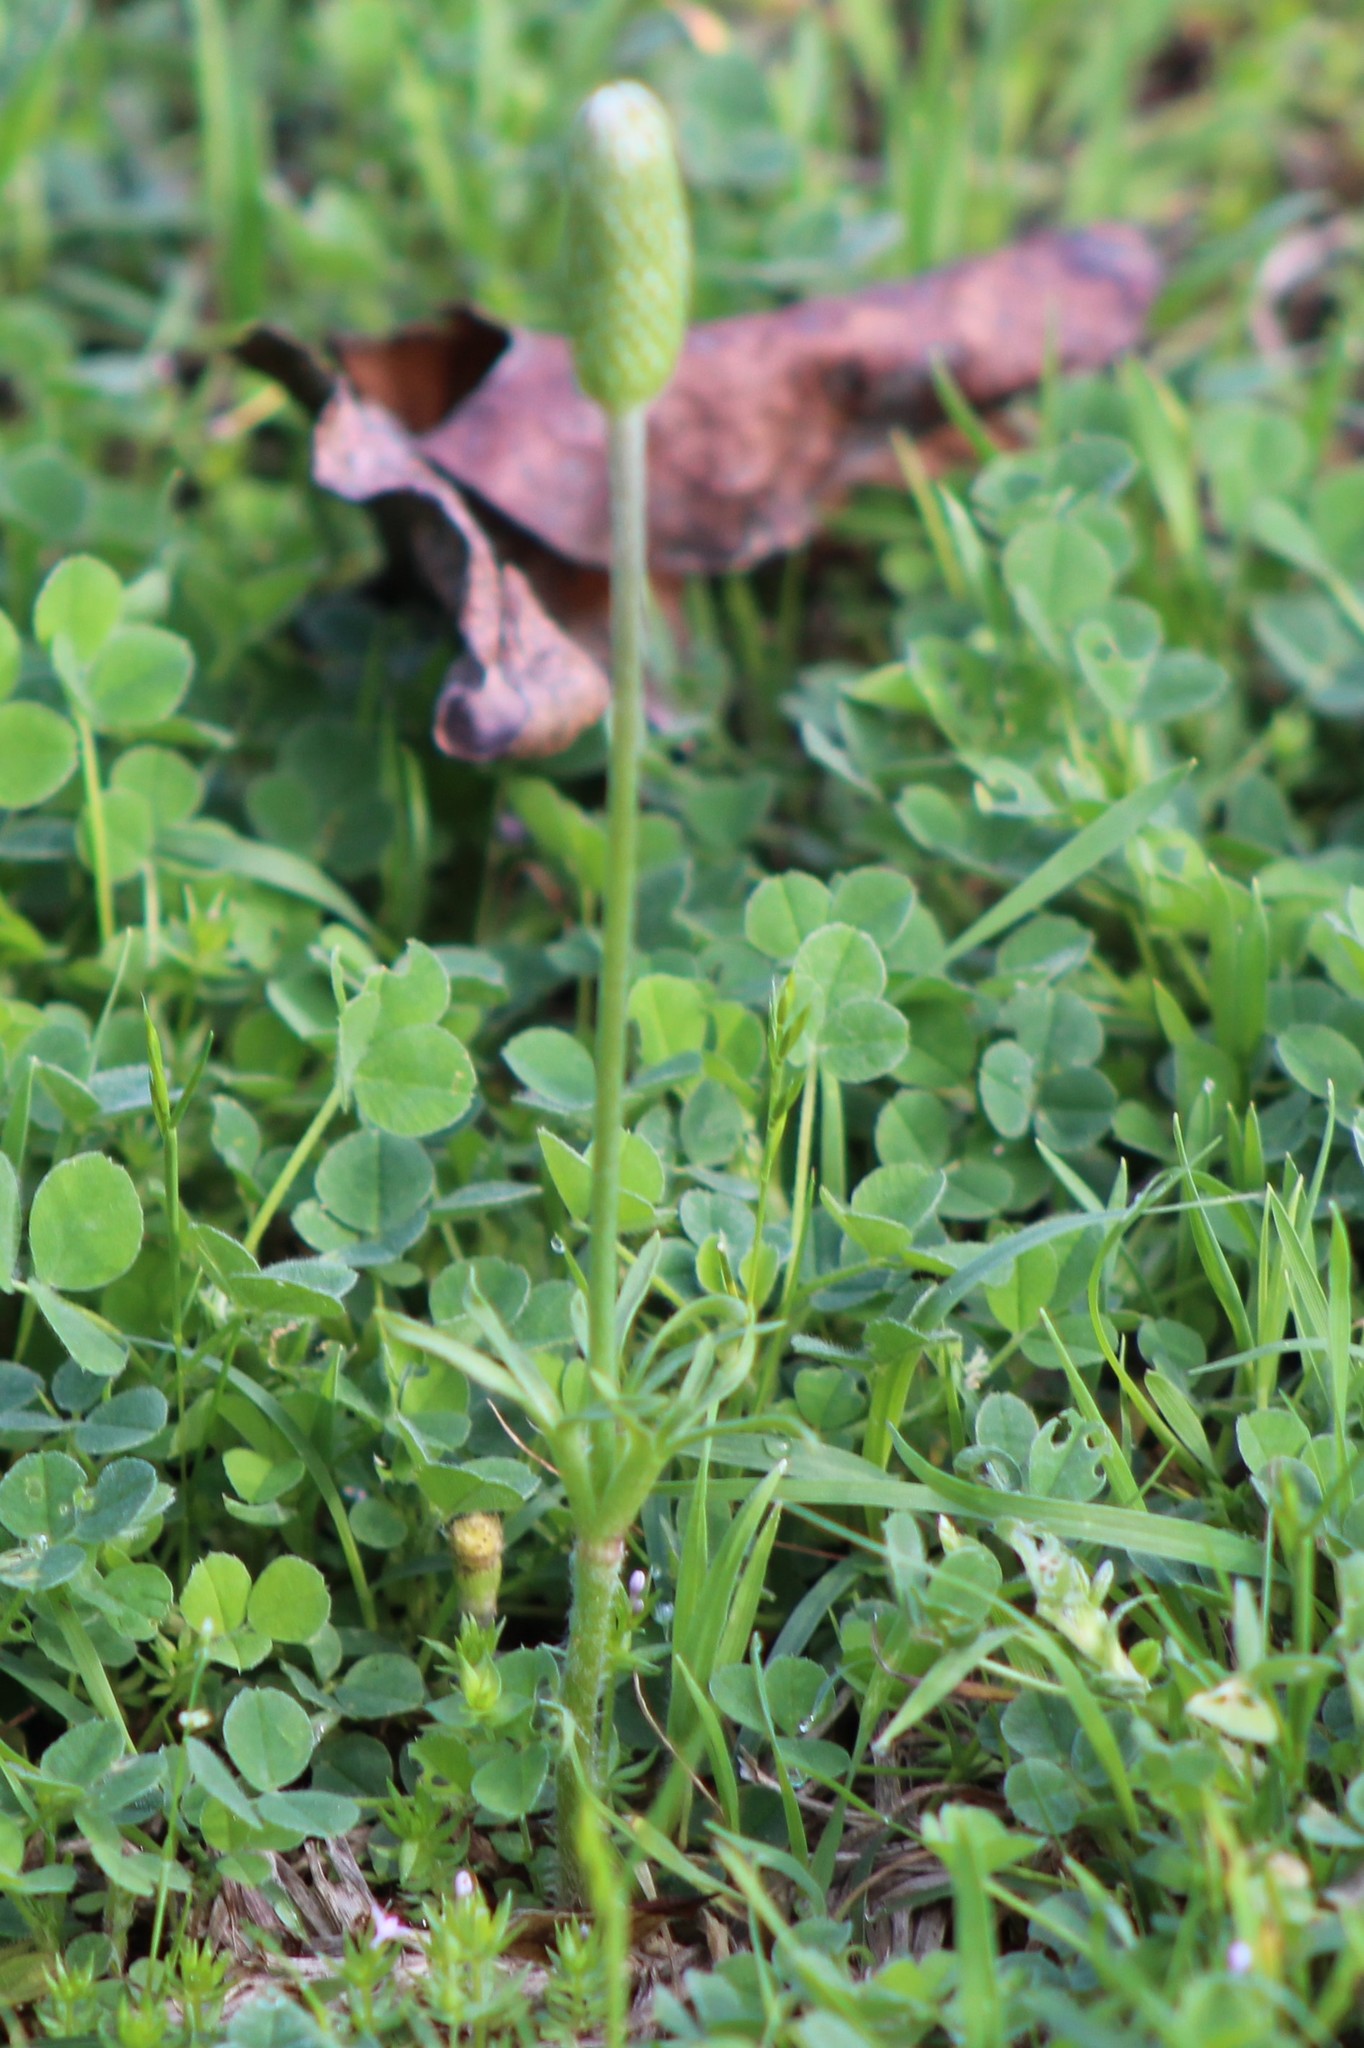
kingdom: Plantae
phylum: Tracheophyta
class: Magnoliopsida
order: Ranunculales
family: Ranunculaceae
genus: Anemone
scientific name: Anemone berlandieri
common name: Ten-petal anemone
